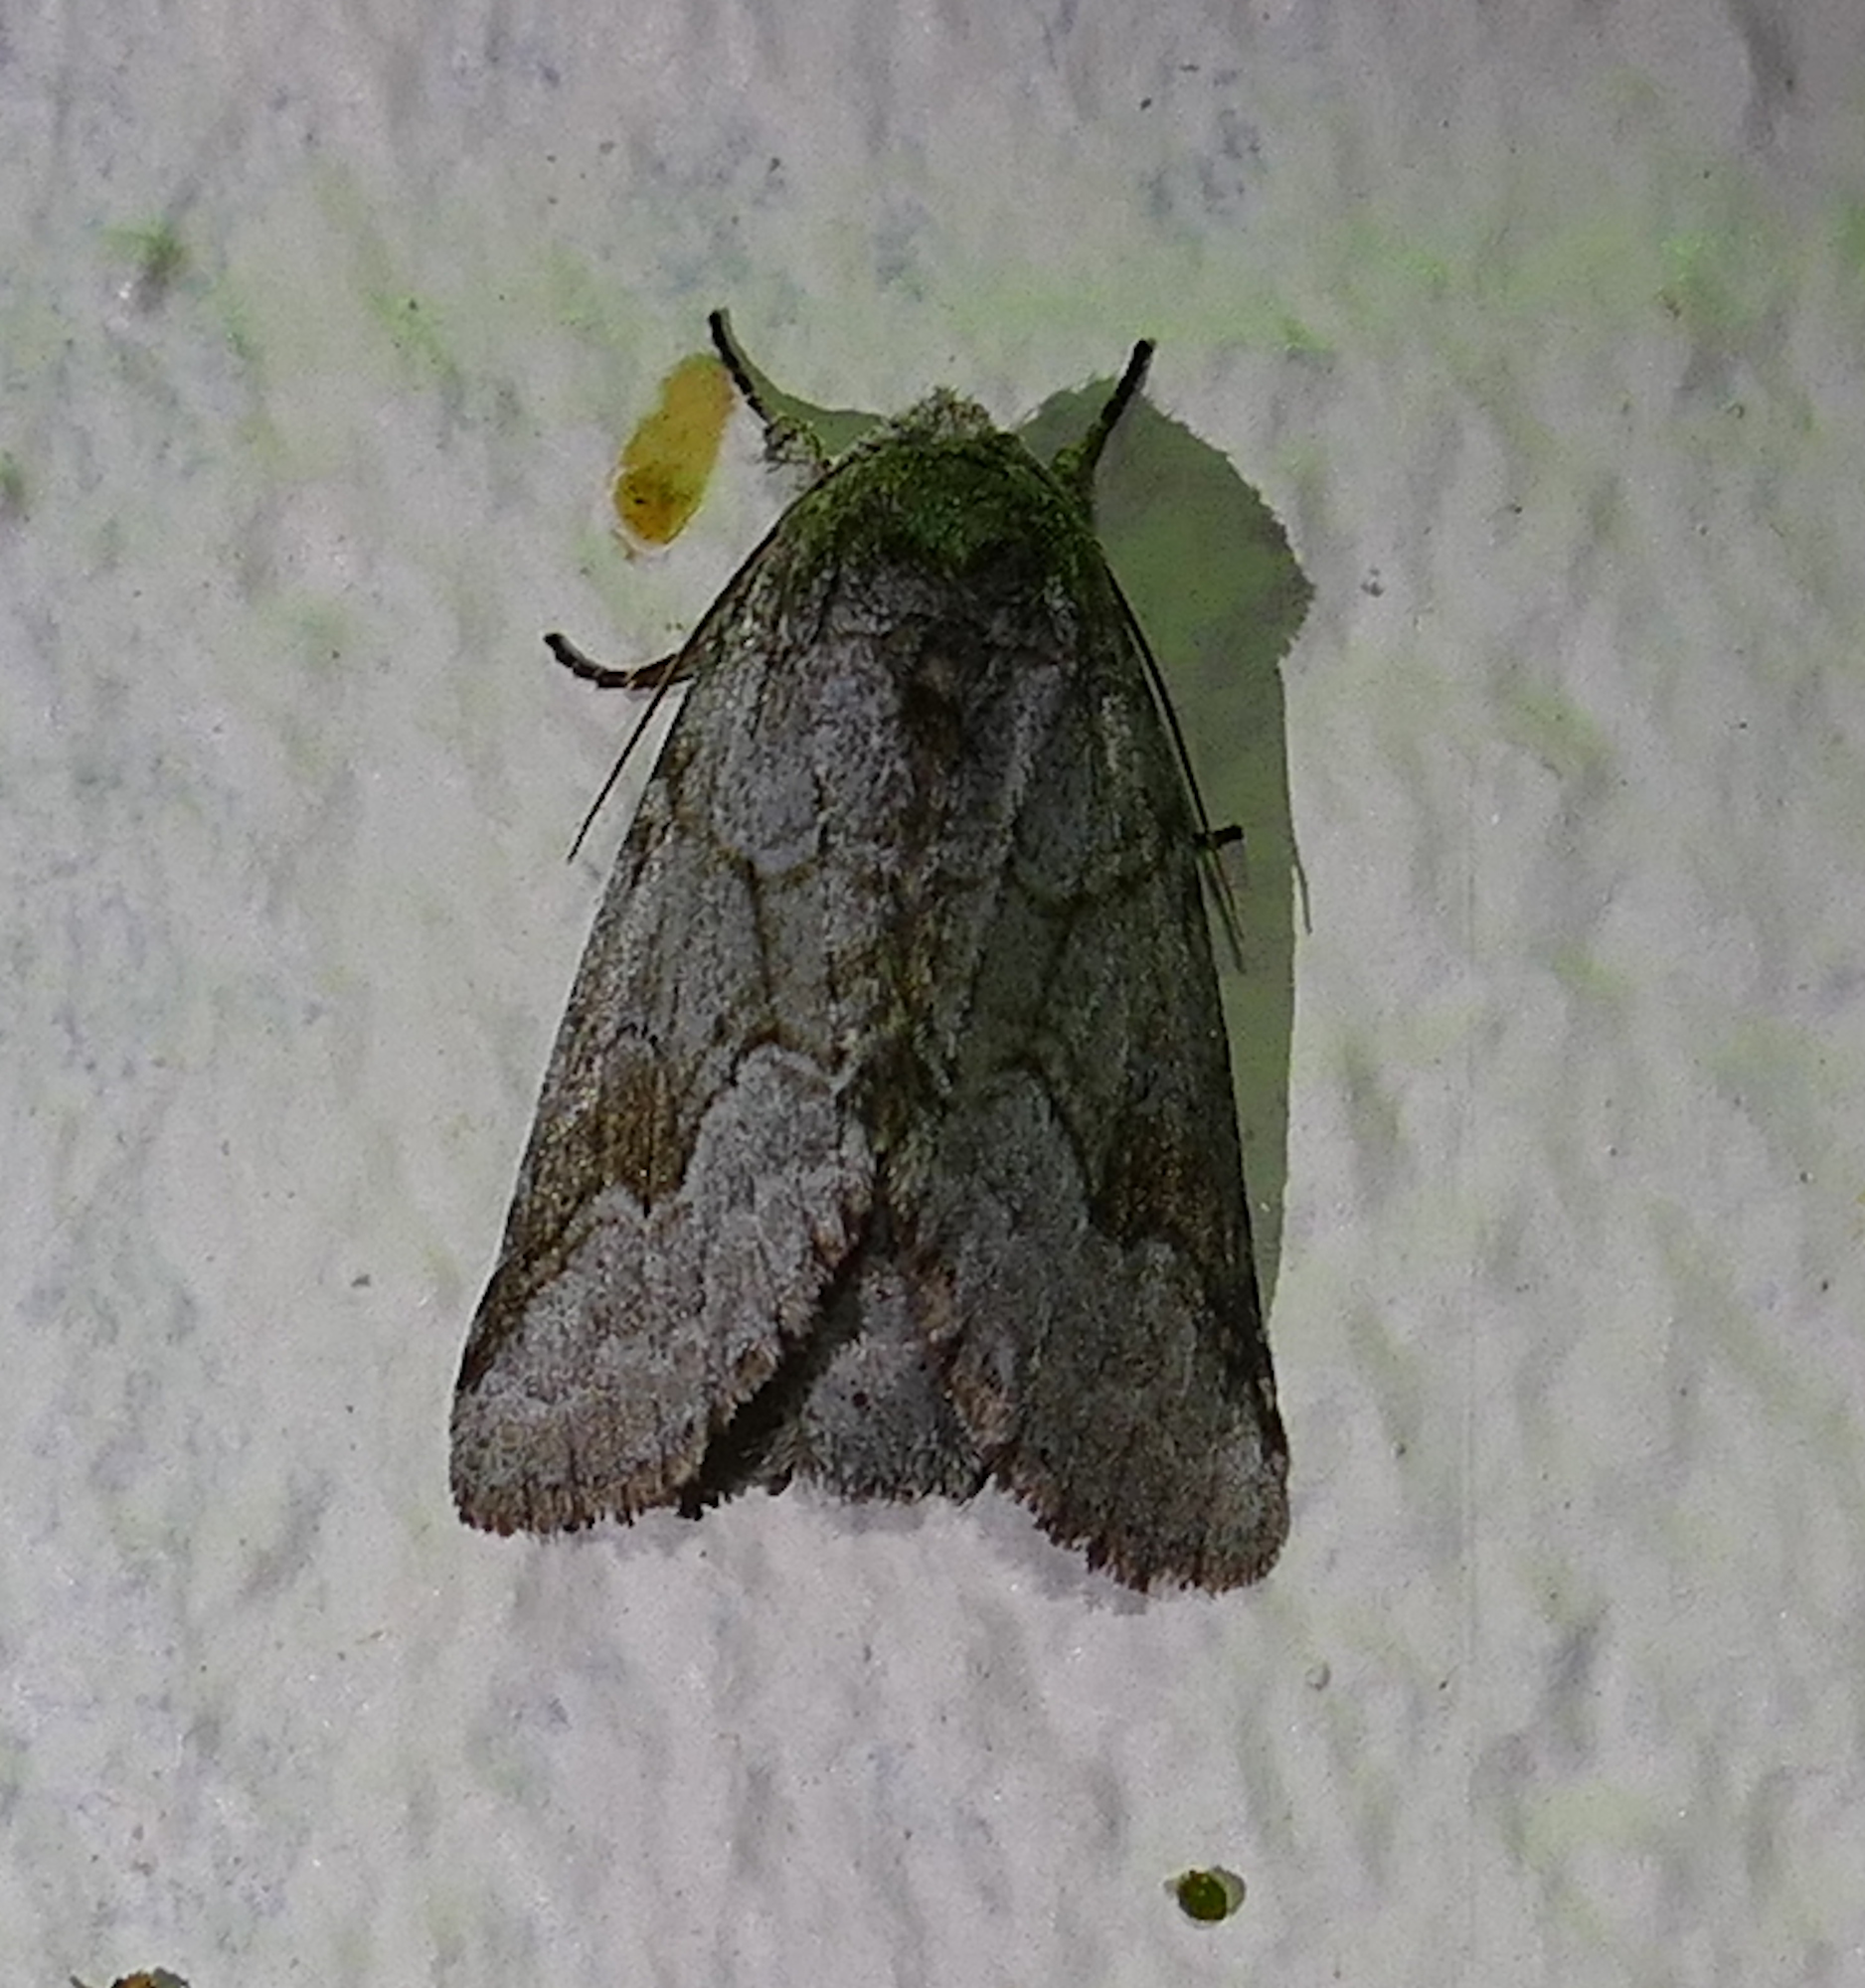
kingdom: Animalia
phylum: Arthropoda
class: Insecta
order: Lepidoptera
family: Notodontidae
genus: Lochmaeus
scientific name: Lochmaeus bilineata
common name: Double-lined prominent
